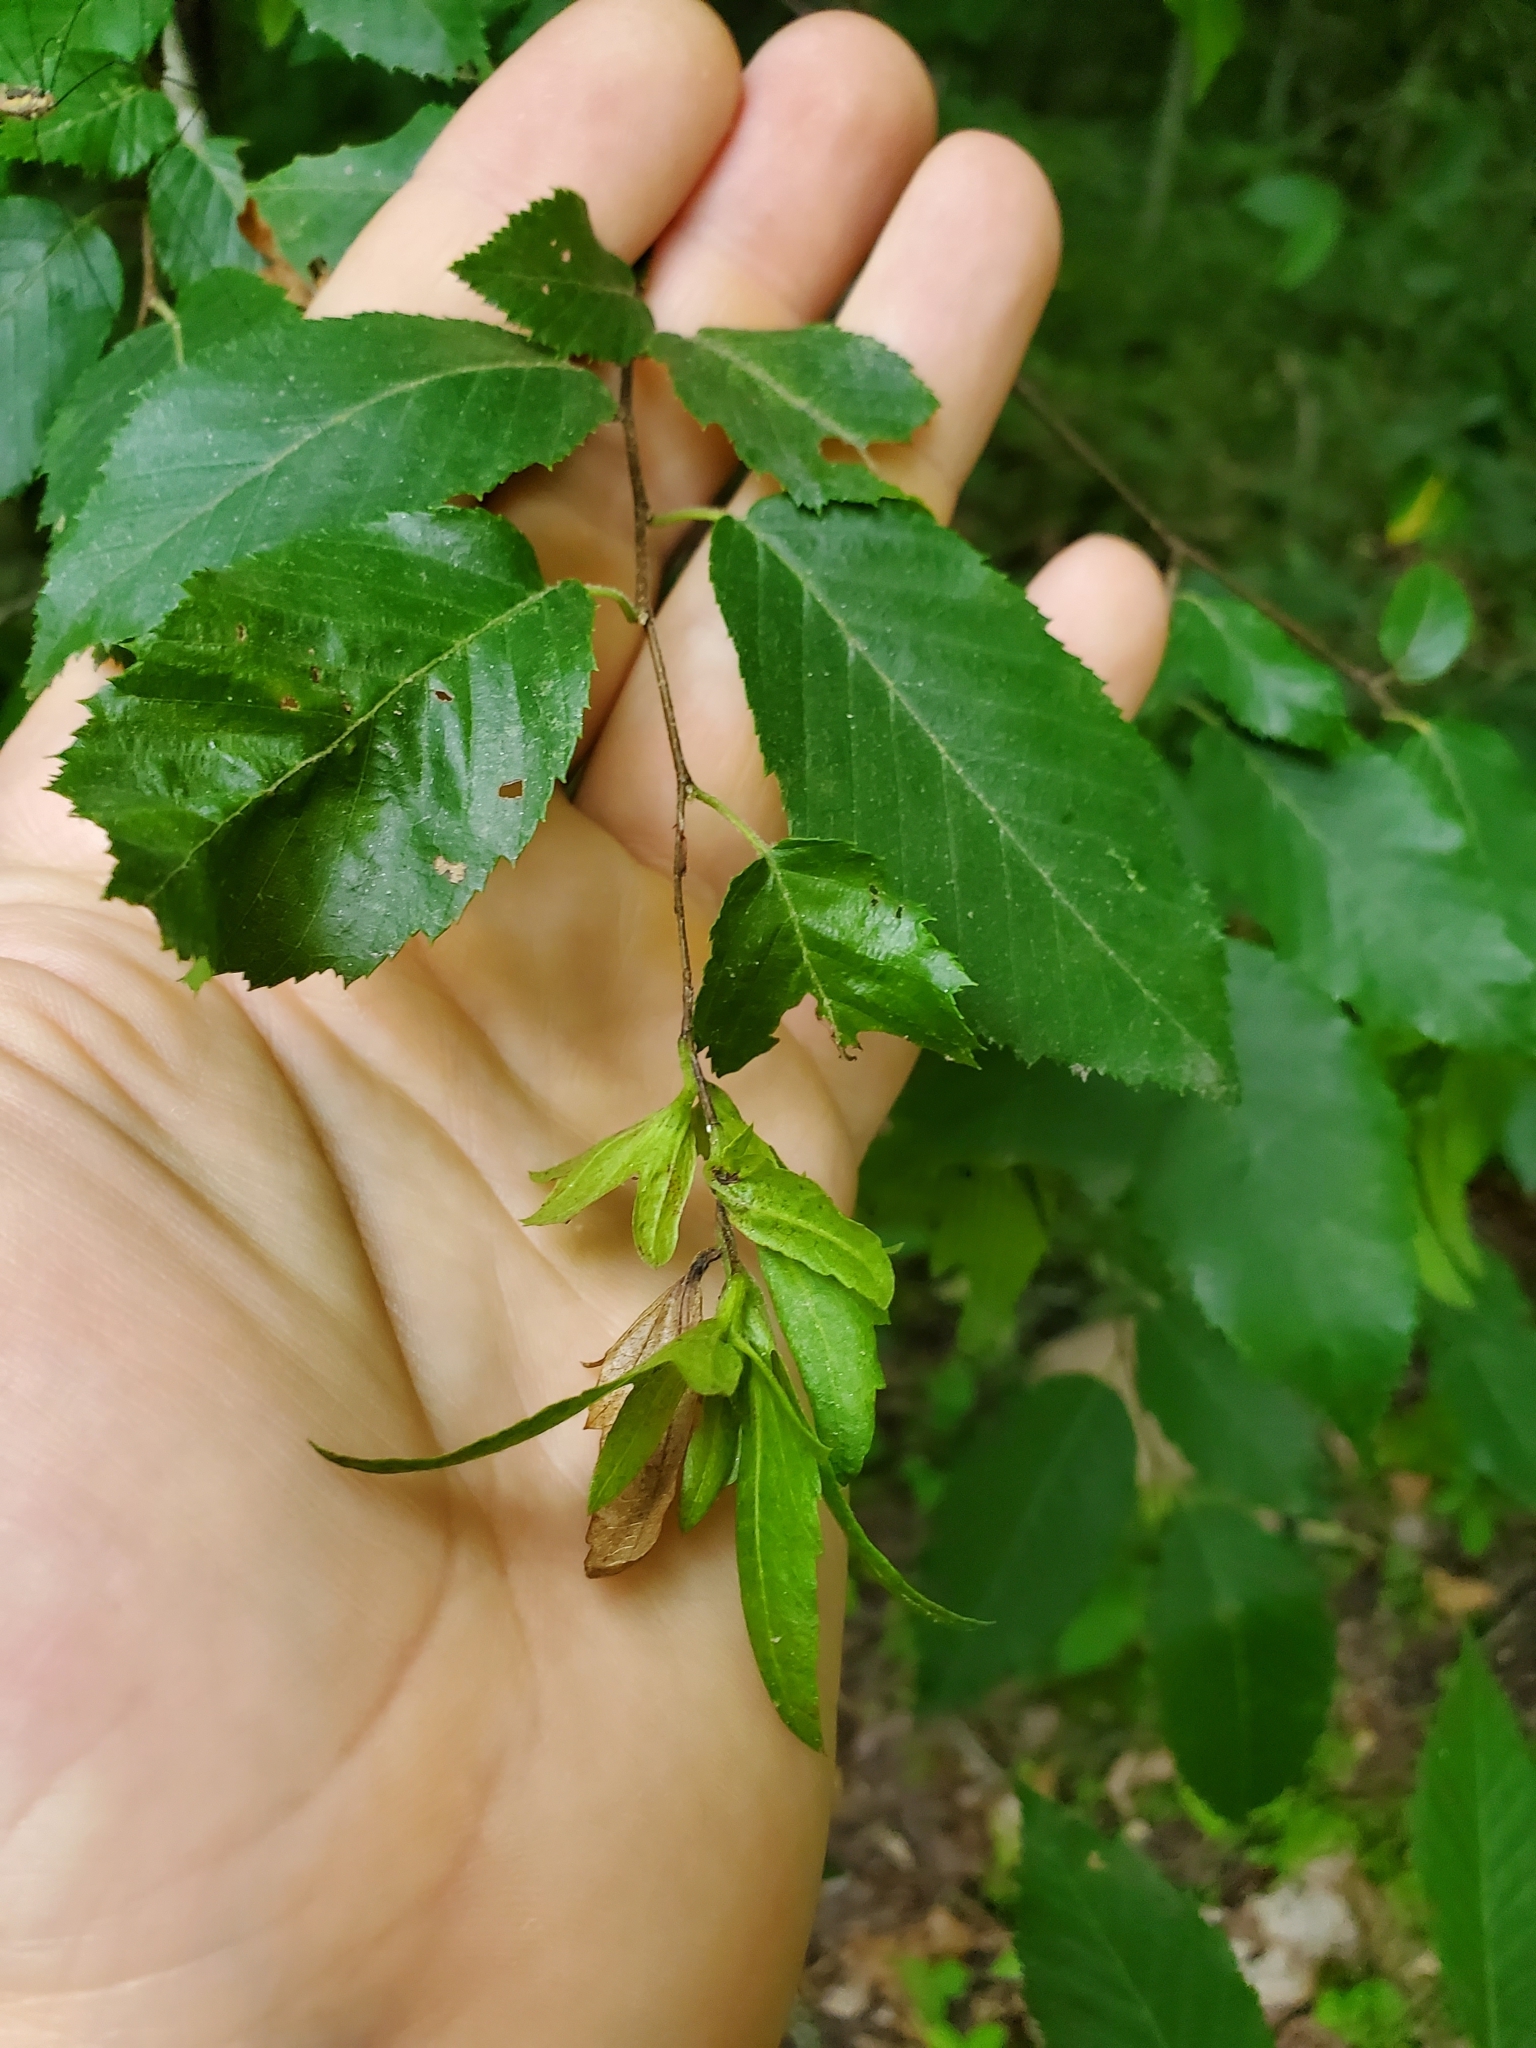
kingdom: Plantae
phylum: Tracheophyta
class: Magnoliopsida
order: Fagales
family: Betulaceae
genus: Carpinus
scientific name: Carpinus caroliniana
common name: American hornbeam
